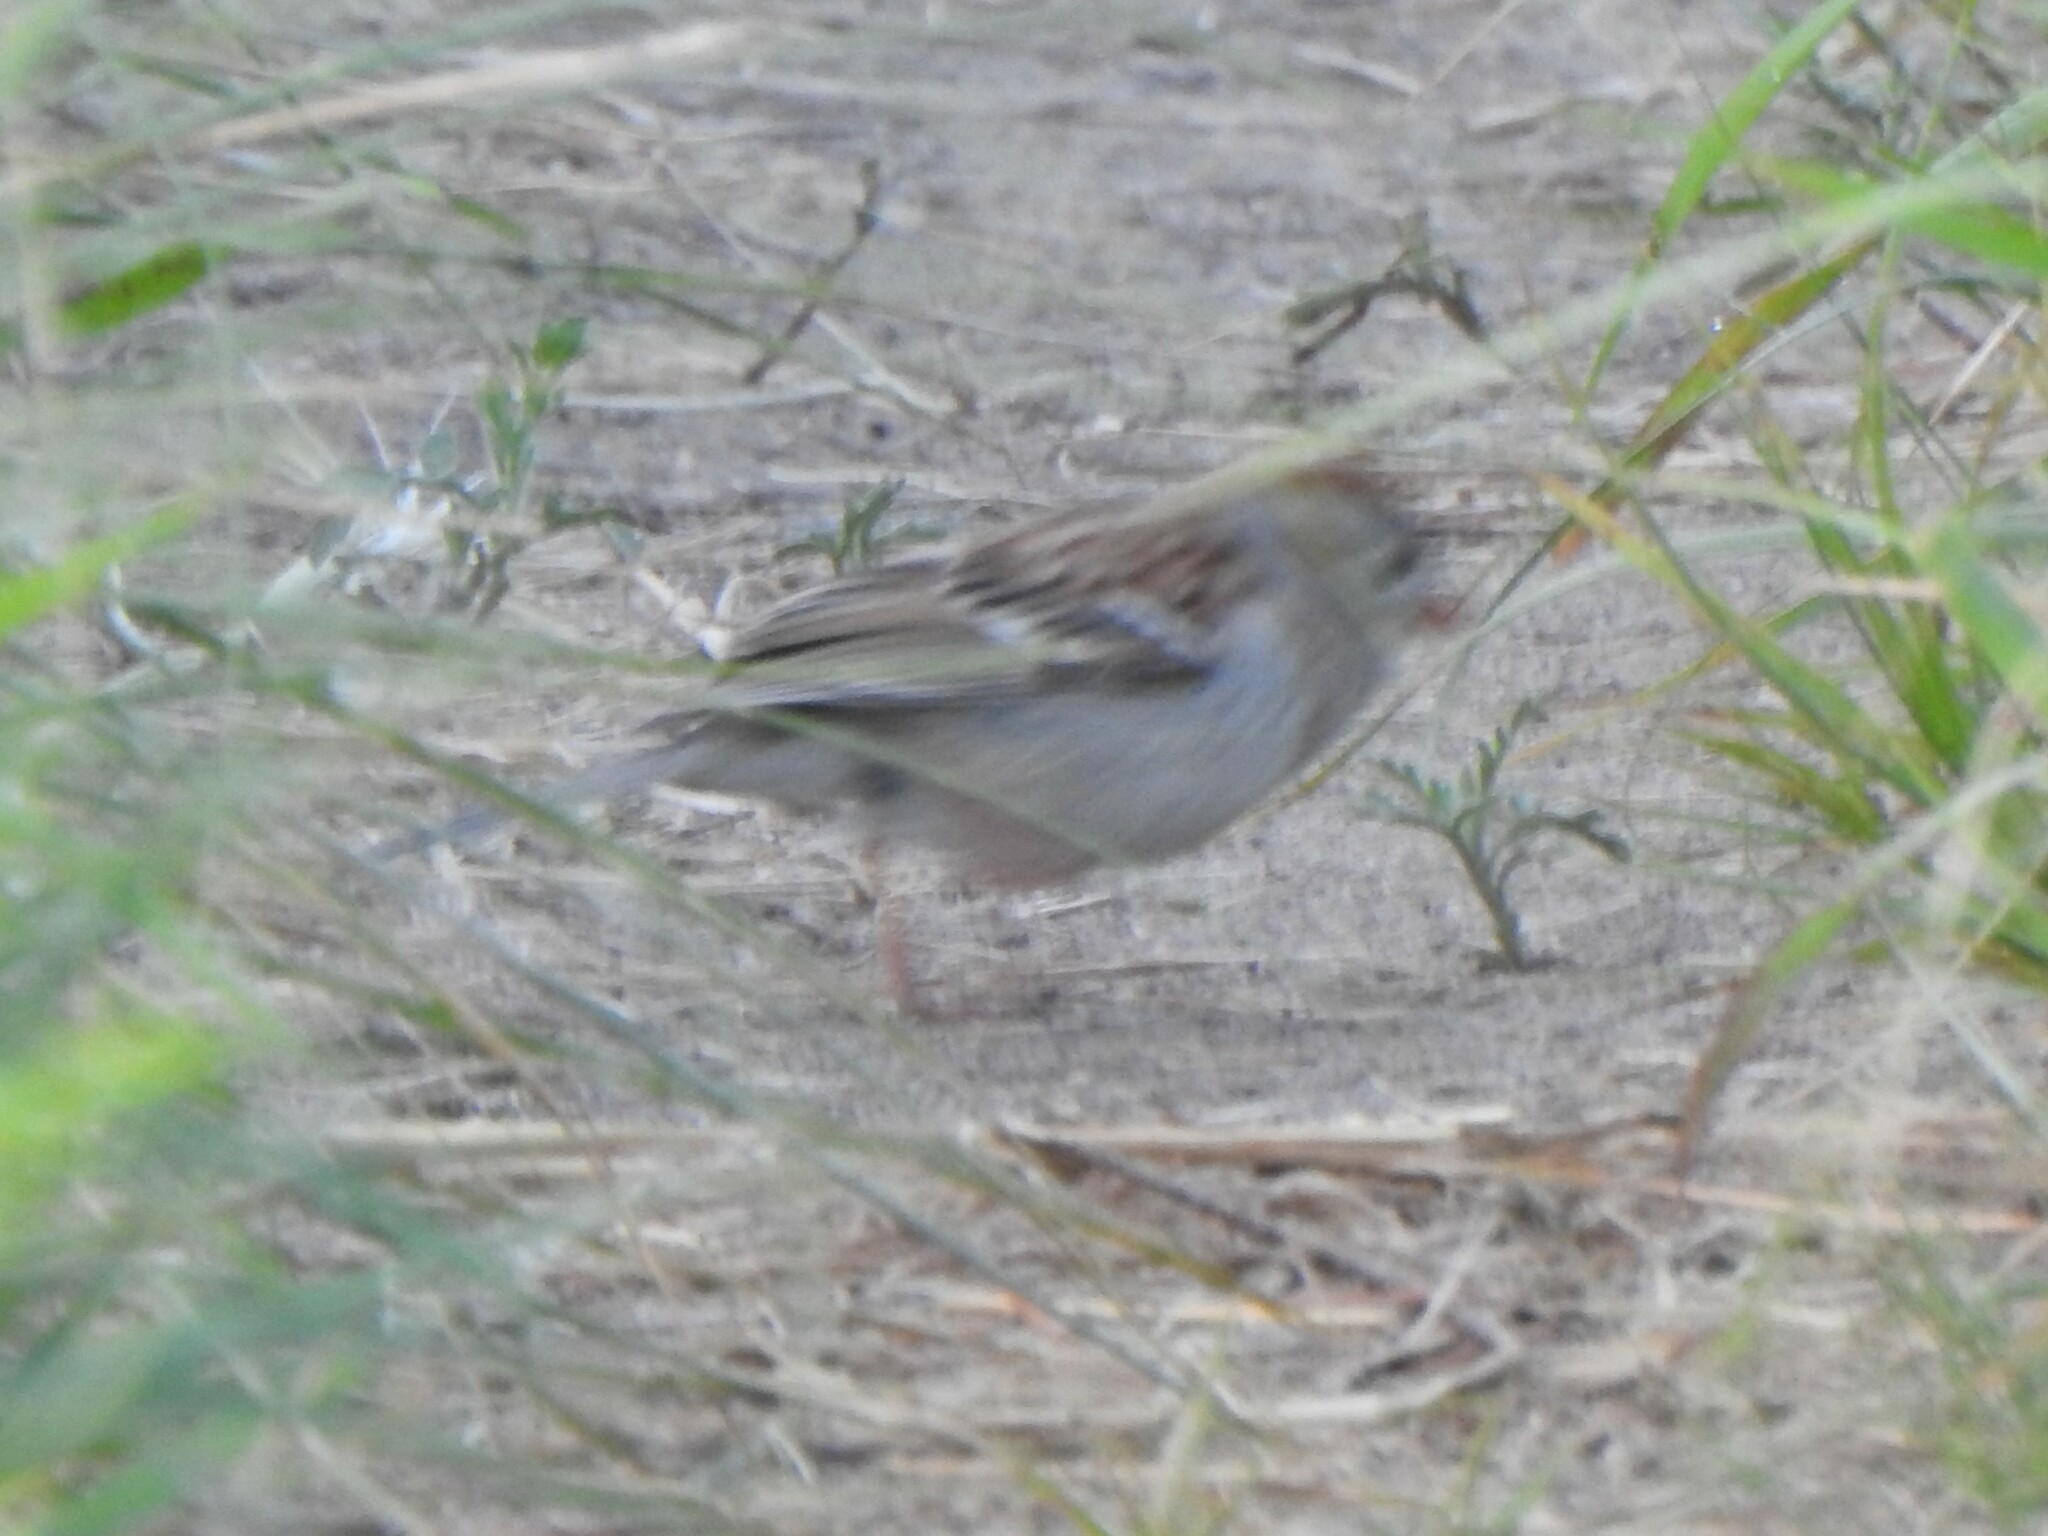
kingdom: Animalia
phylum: Chordata
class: Aves
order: Passeriformes
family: Passerellidae
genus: Spizella
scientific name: Spizella pusilla
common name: Field sparrow
